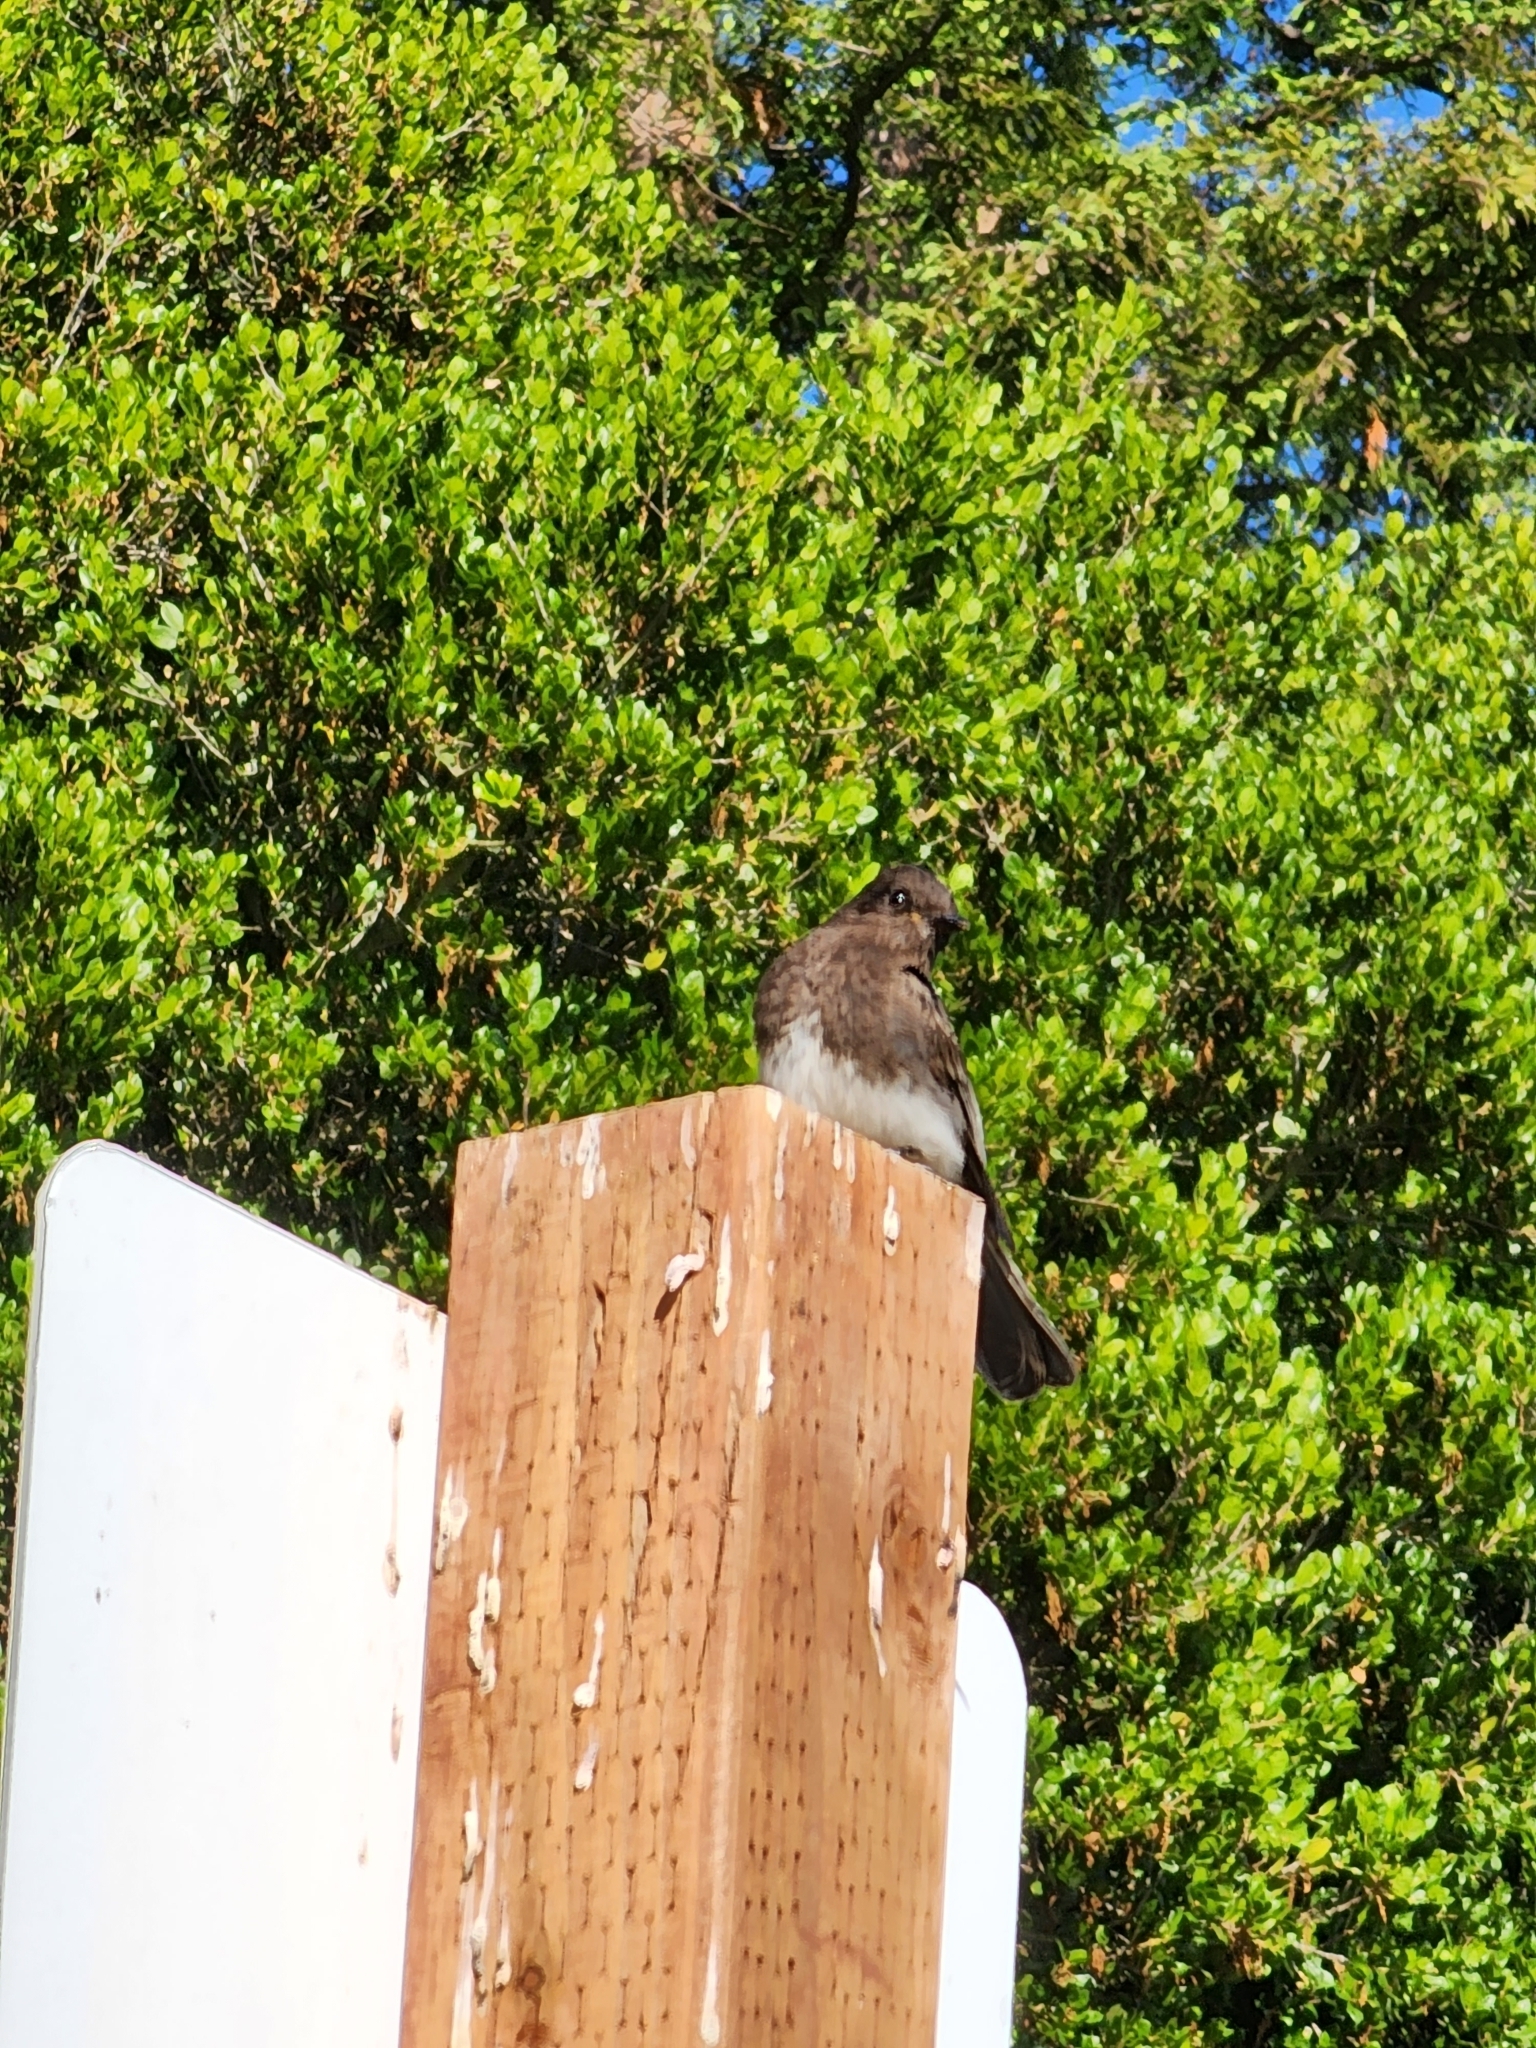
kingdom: Animalia
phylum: Chordata
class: Aves
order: Passeriformes
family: Tyrannidae
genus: Sayornis
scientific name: Sayornis nigricans
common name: Black phoebe
